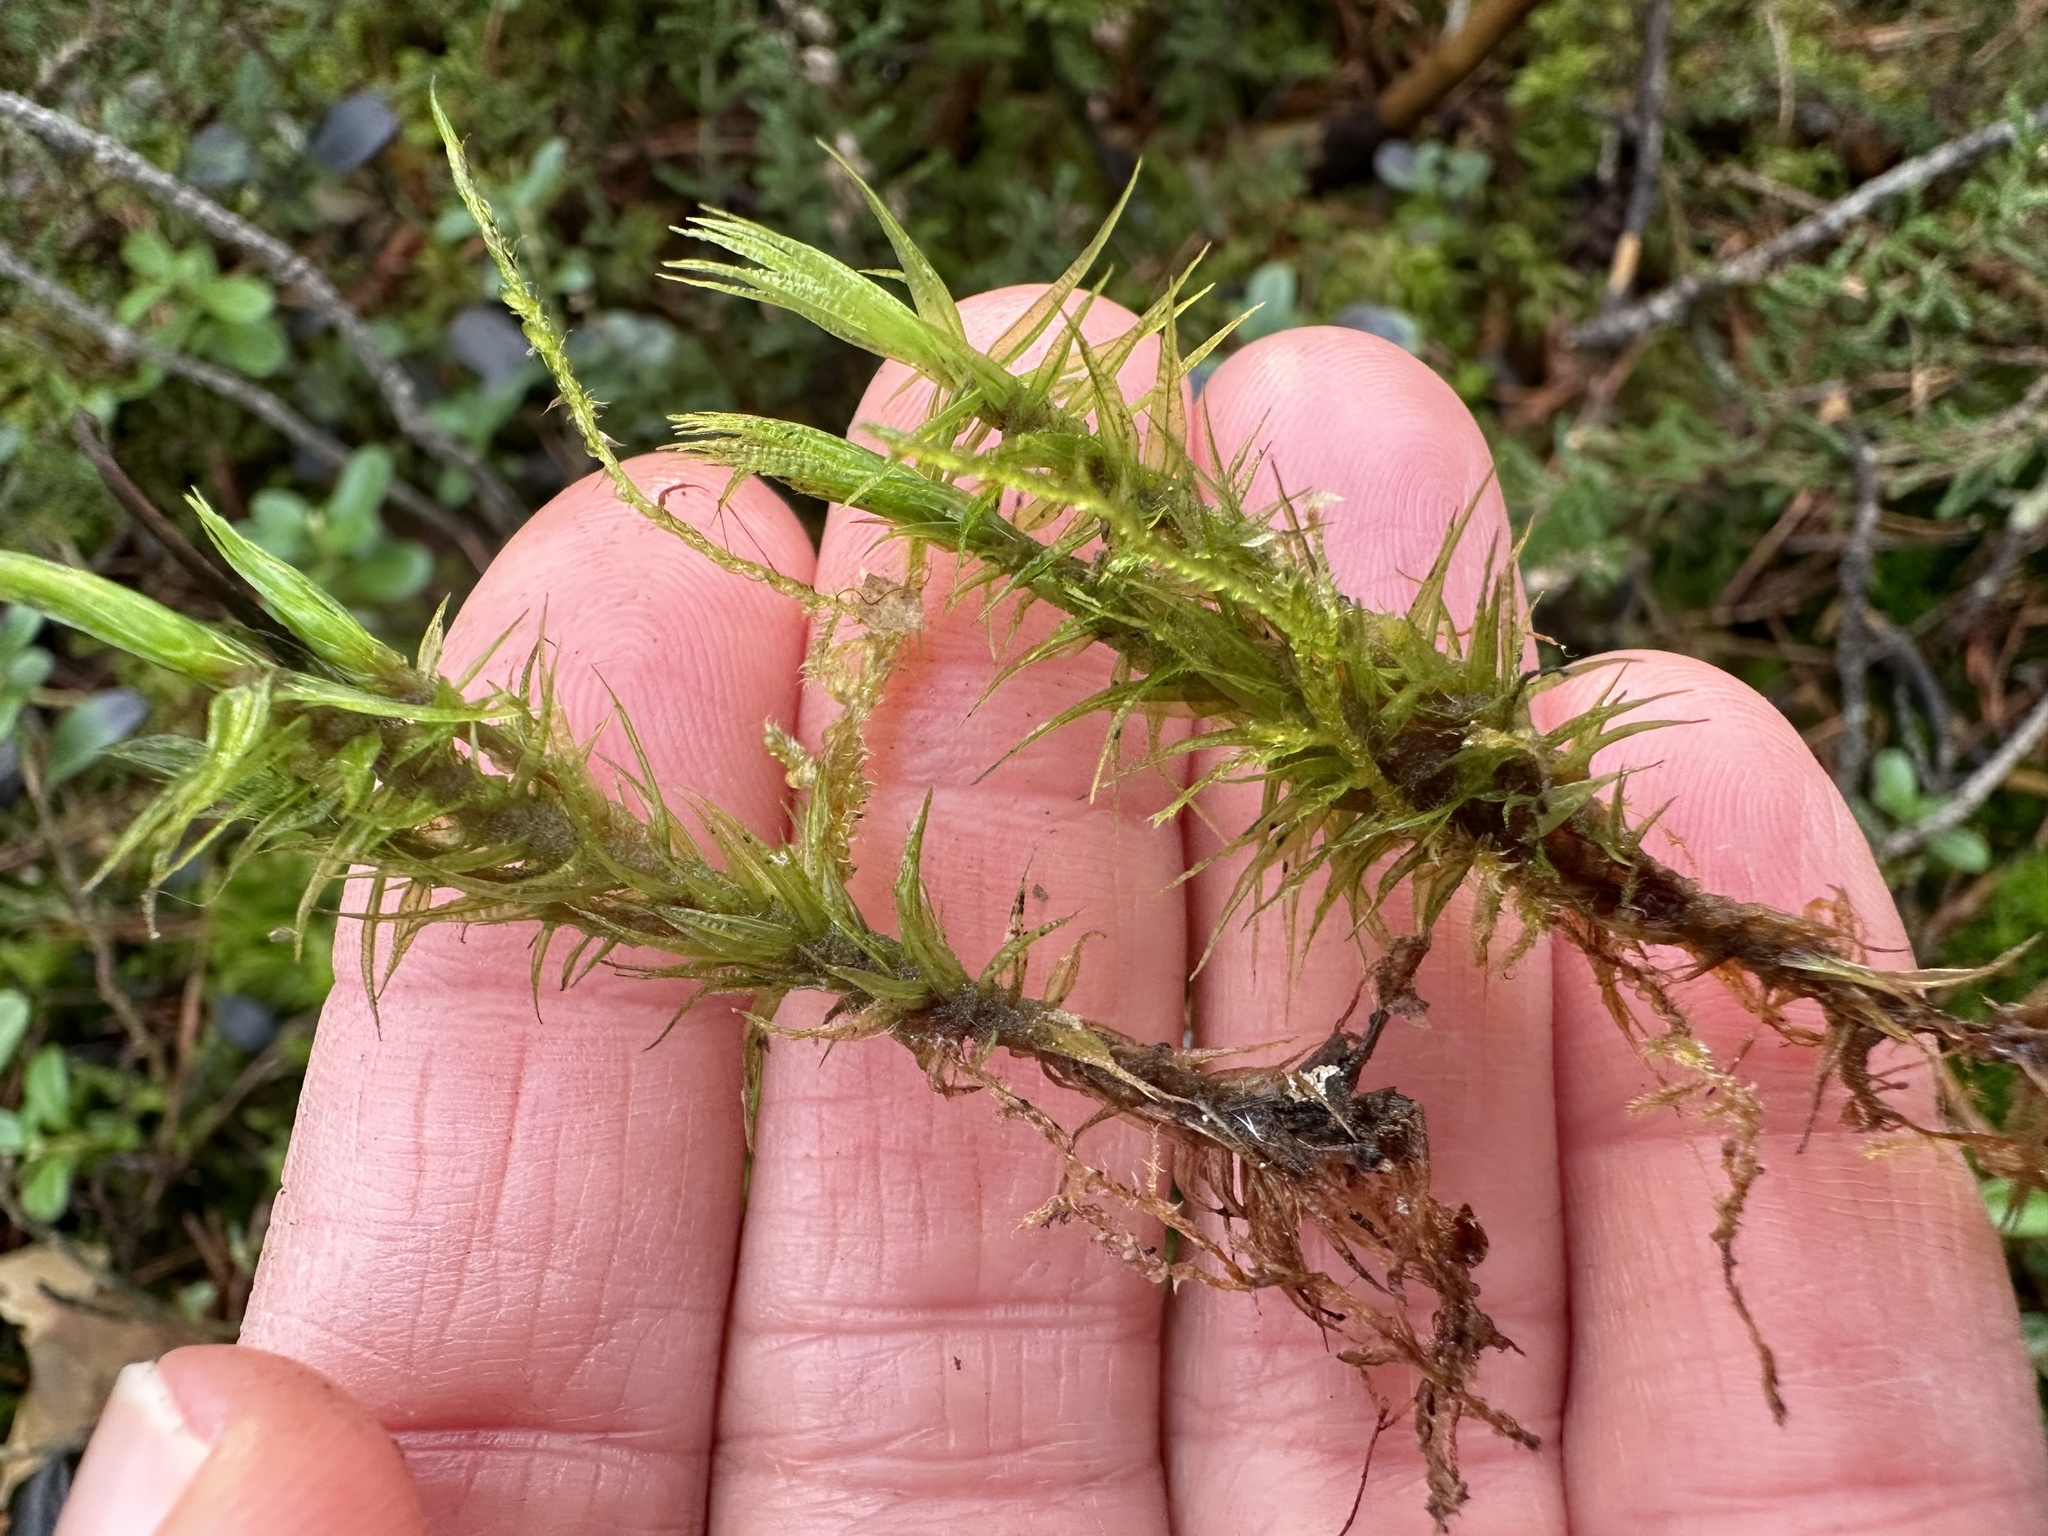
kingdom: Plantae
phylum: Bryophyta
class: Bryopsida
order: Dicranales
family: Dicranaceae
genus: Dicranum
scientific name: Dicranum polysetum
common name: Rugose fork-moss
